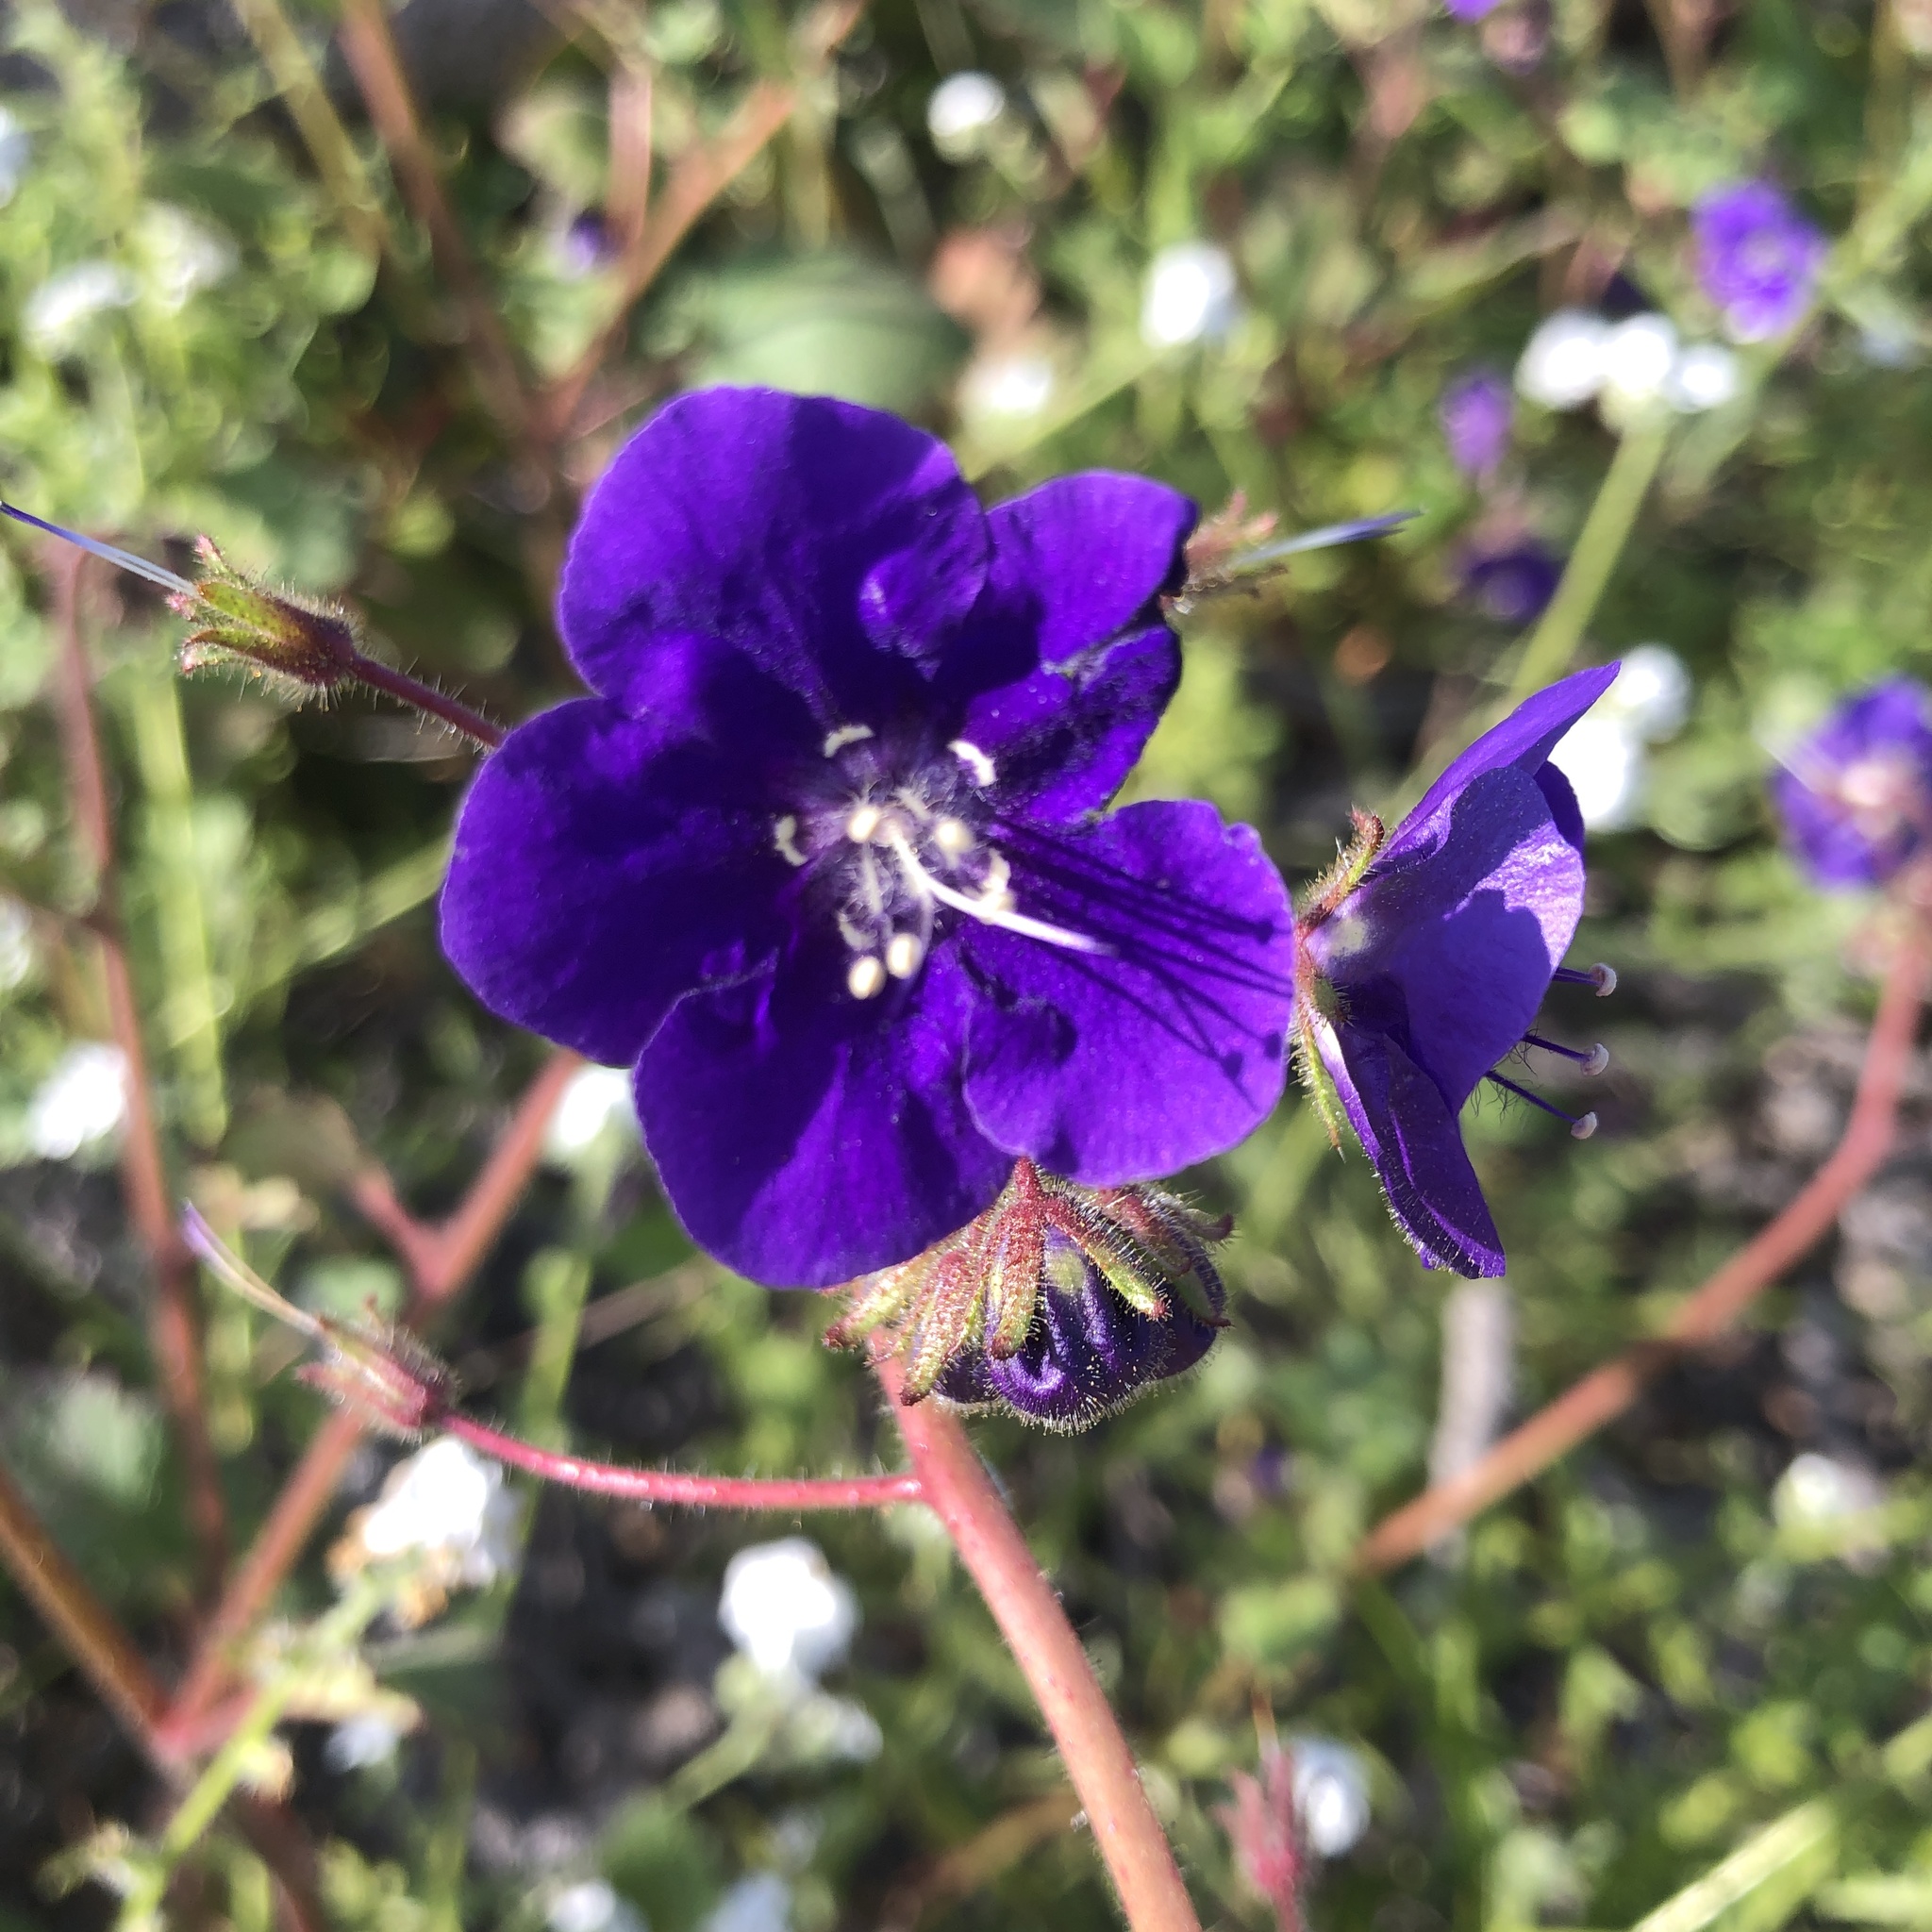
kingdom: Plantae
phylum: Tracheophyta
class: Magnoliopsida
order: Boraginales
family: Hydrophyllaceae
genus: Phacelia
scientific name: Phacelia parryi
